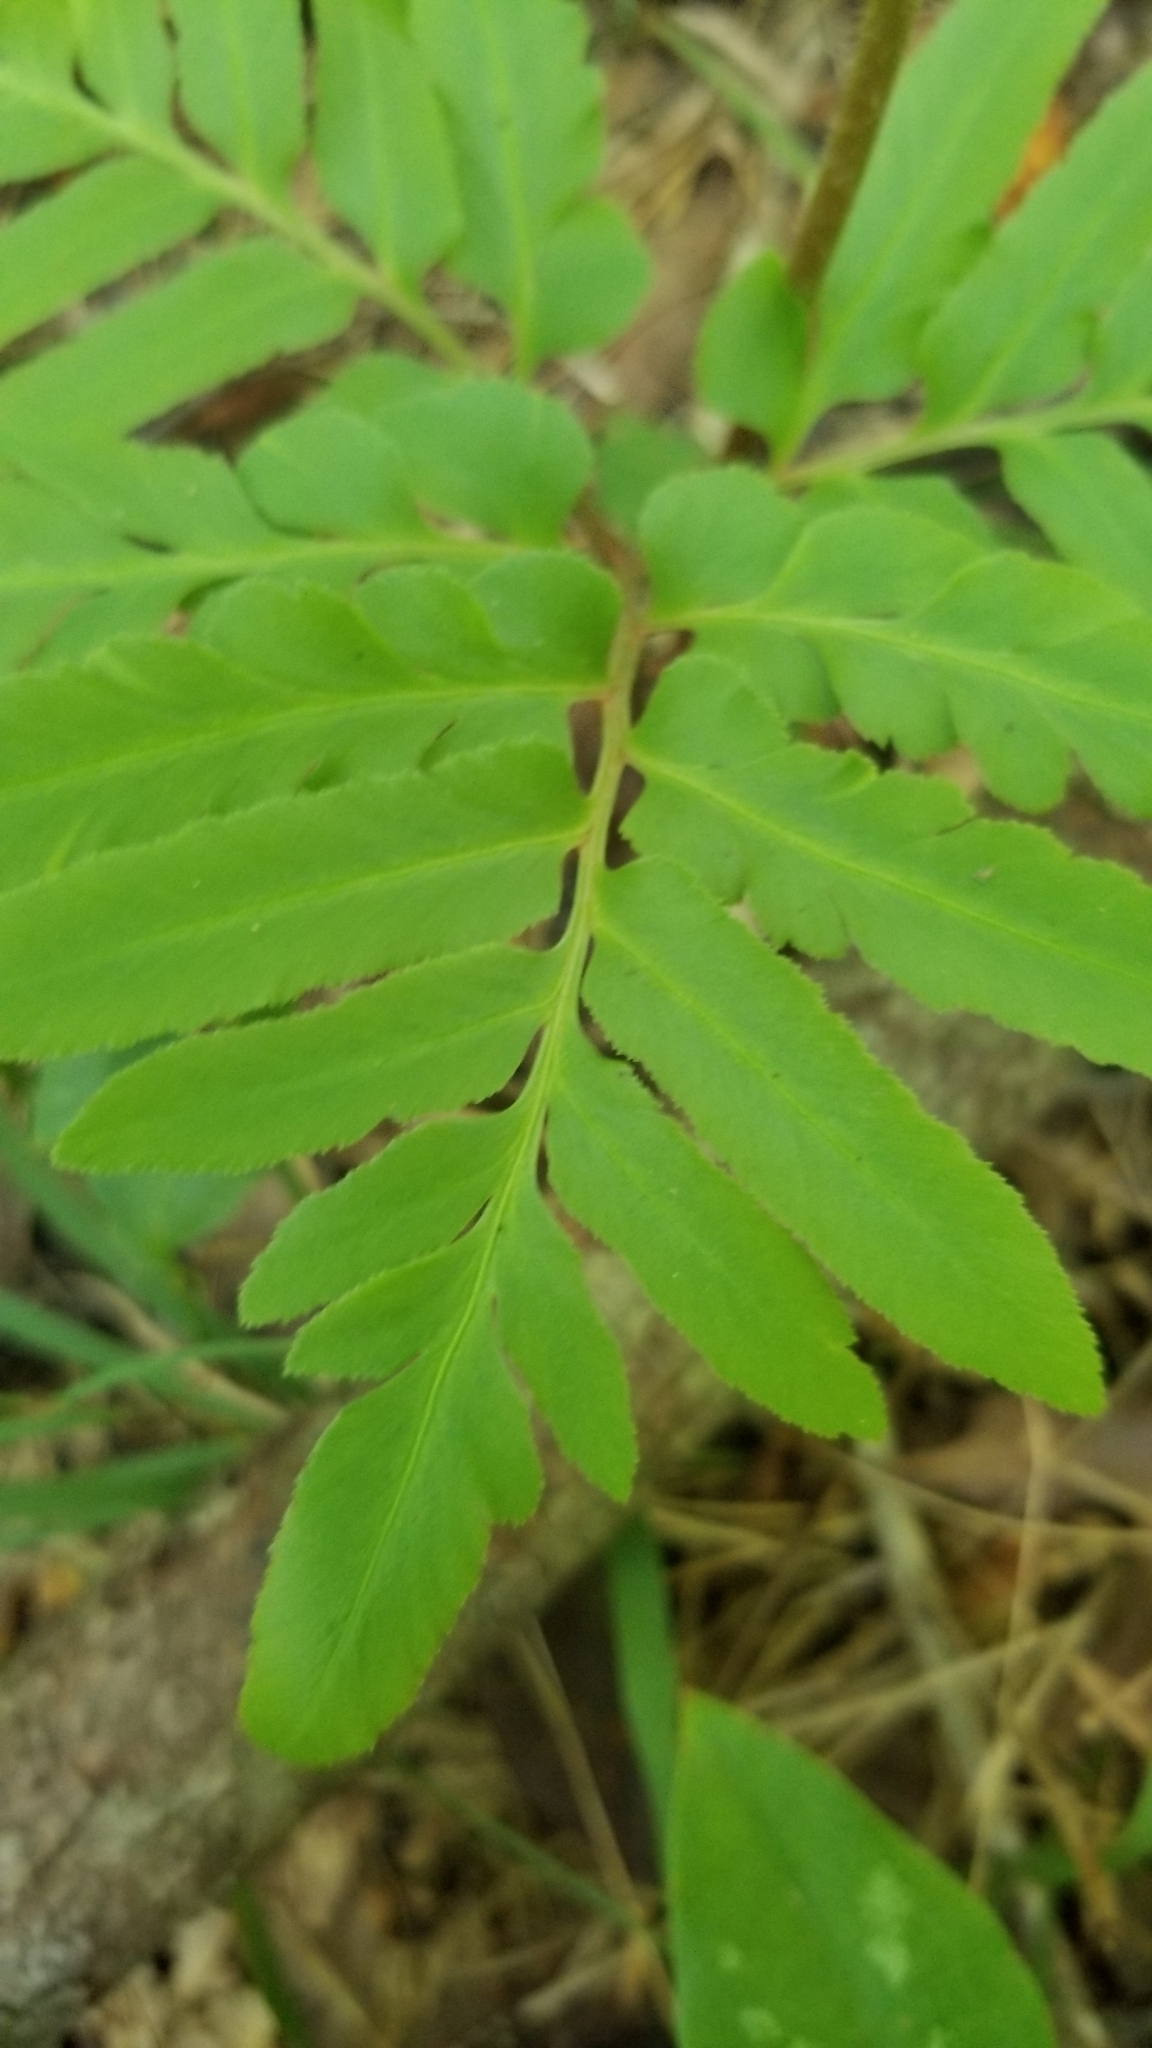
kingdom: Plantae
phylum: Tracheophyta
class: Polypodiopsida
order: Ophioglossales
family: Ophioglossaceae
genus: Sceptridium
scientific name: Sceptridium biternatum
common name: Sparse-lobed grapefern
